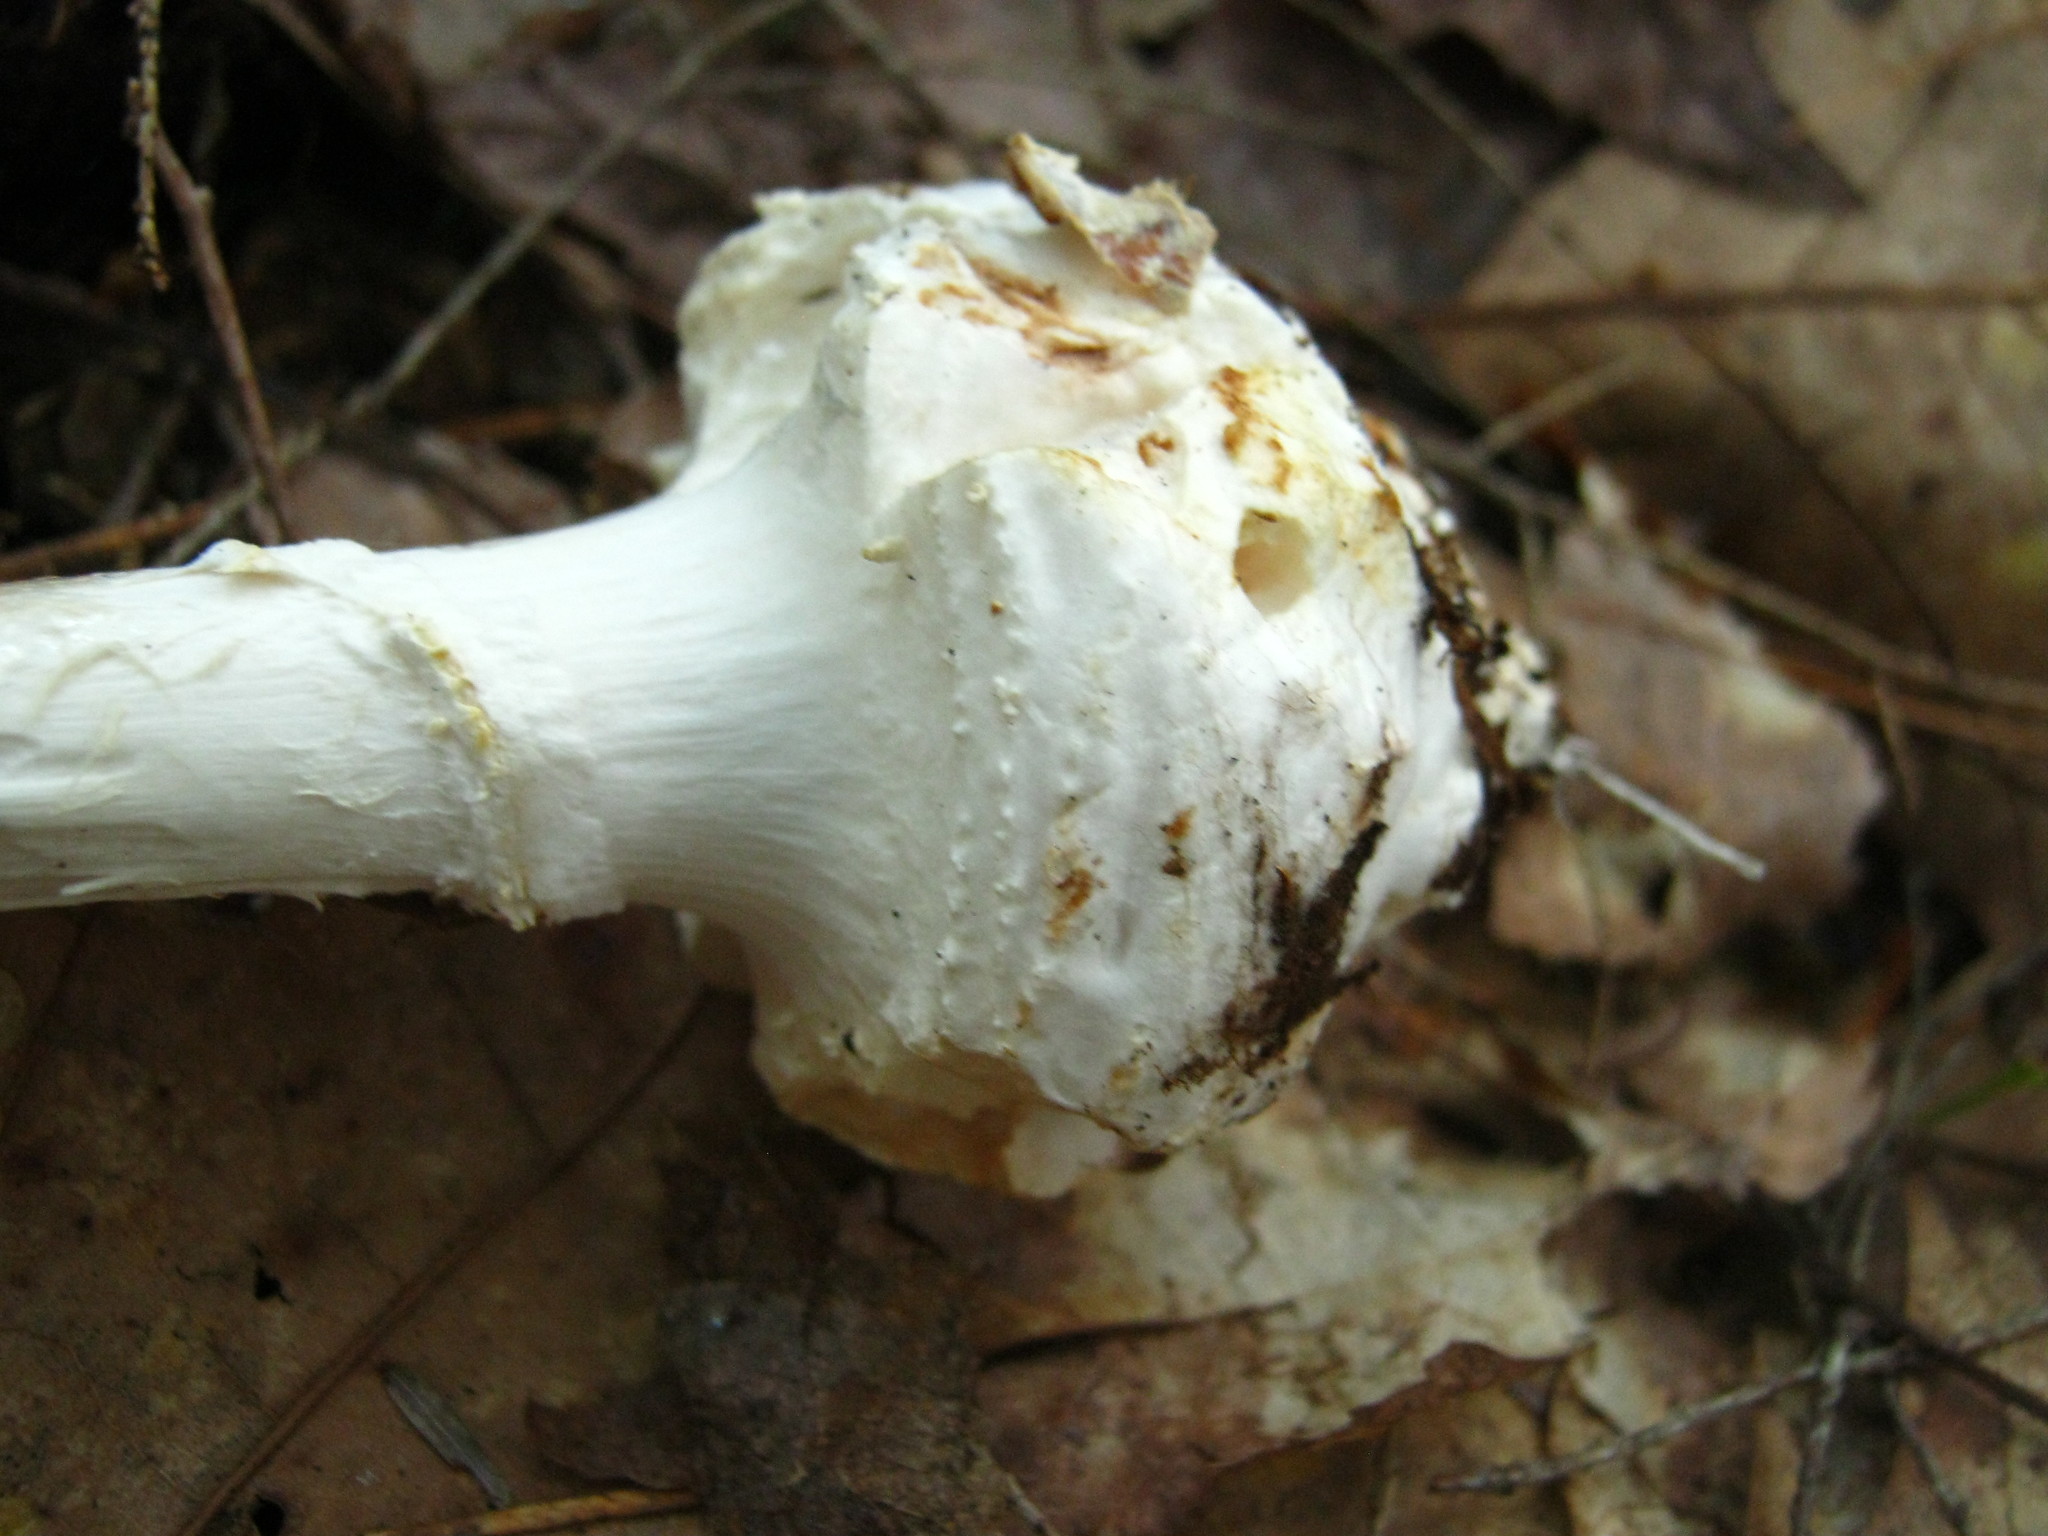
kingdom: Fungi
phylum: Basidiomycota
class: Agaricomycetes
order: Agaricales
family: Amanitaceae
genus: Amanita
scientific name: Amanita abrupta
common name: American abrupt-bulbed lepidella
